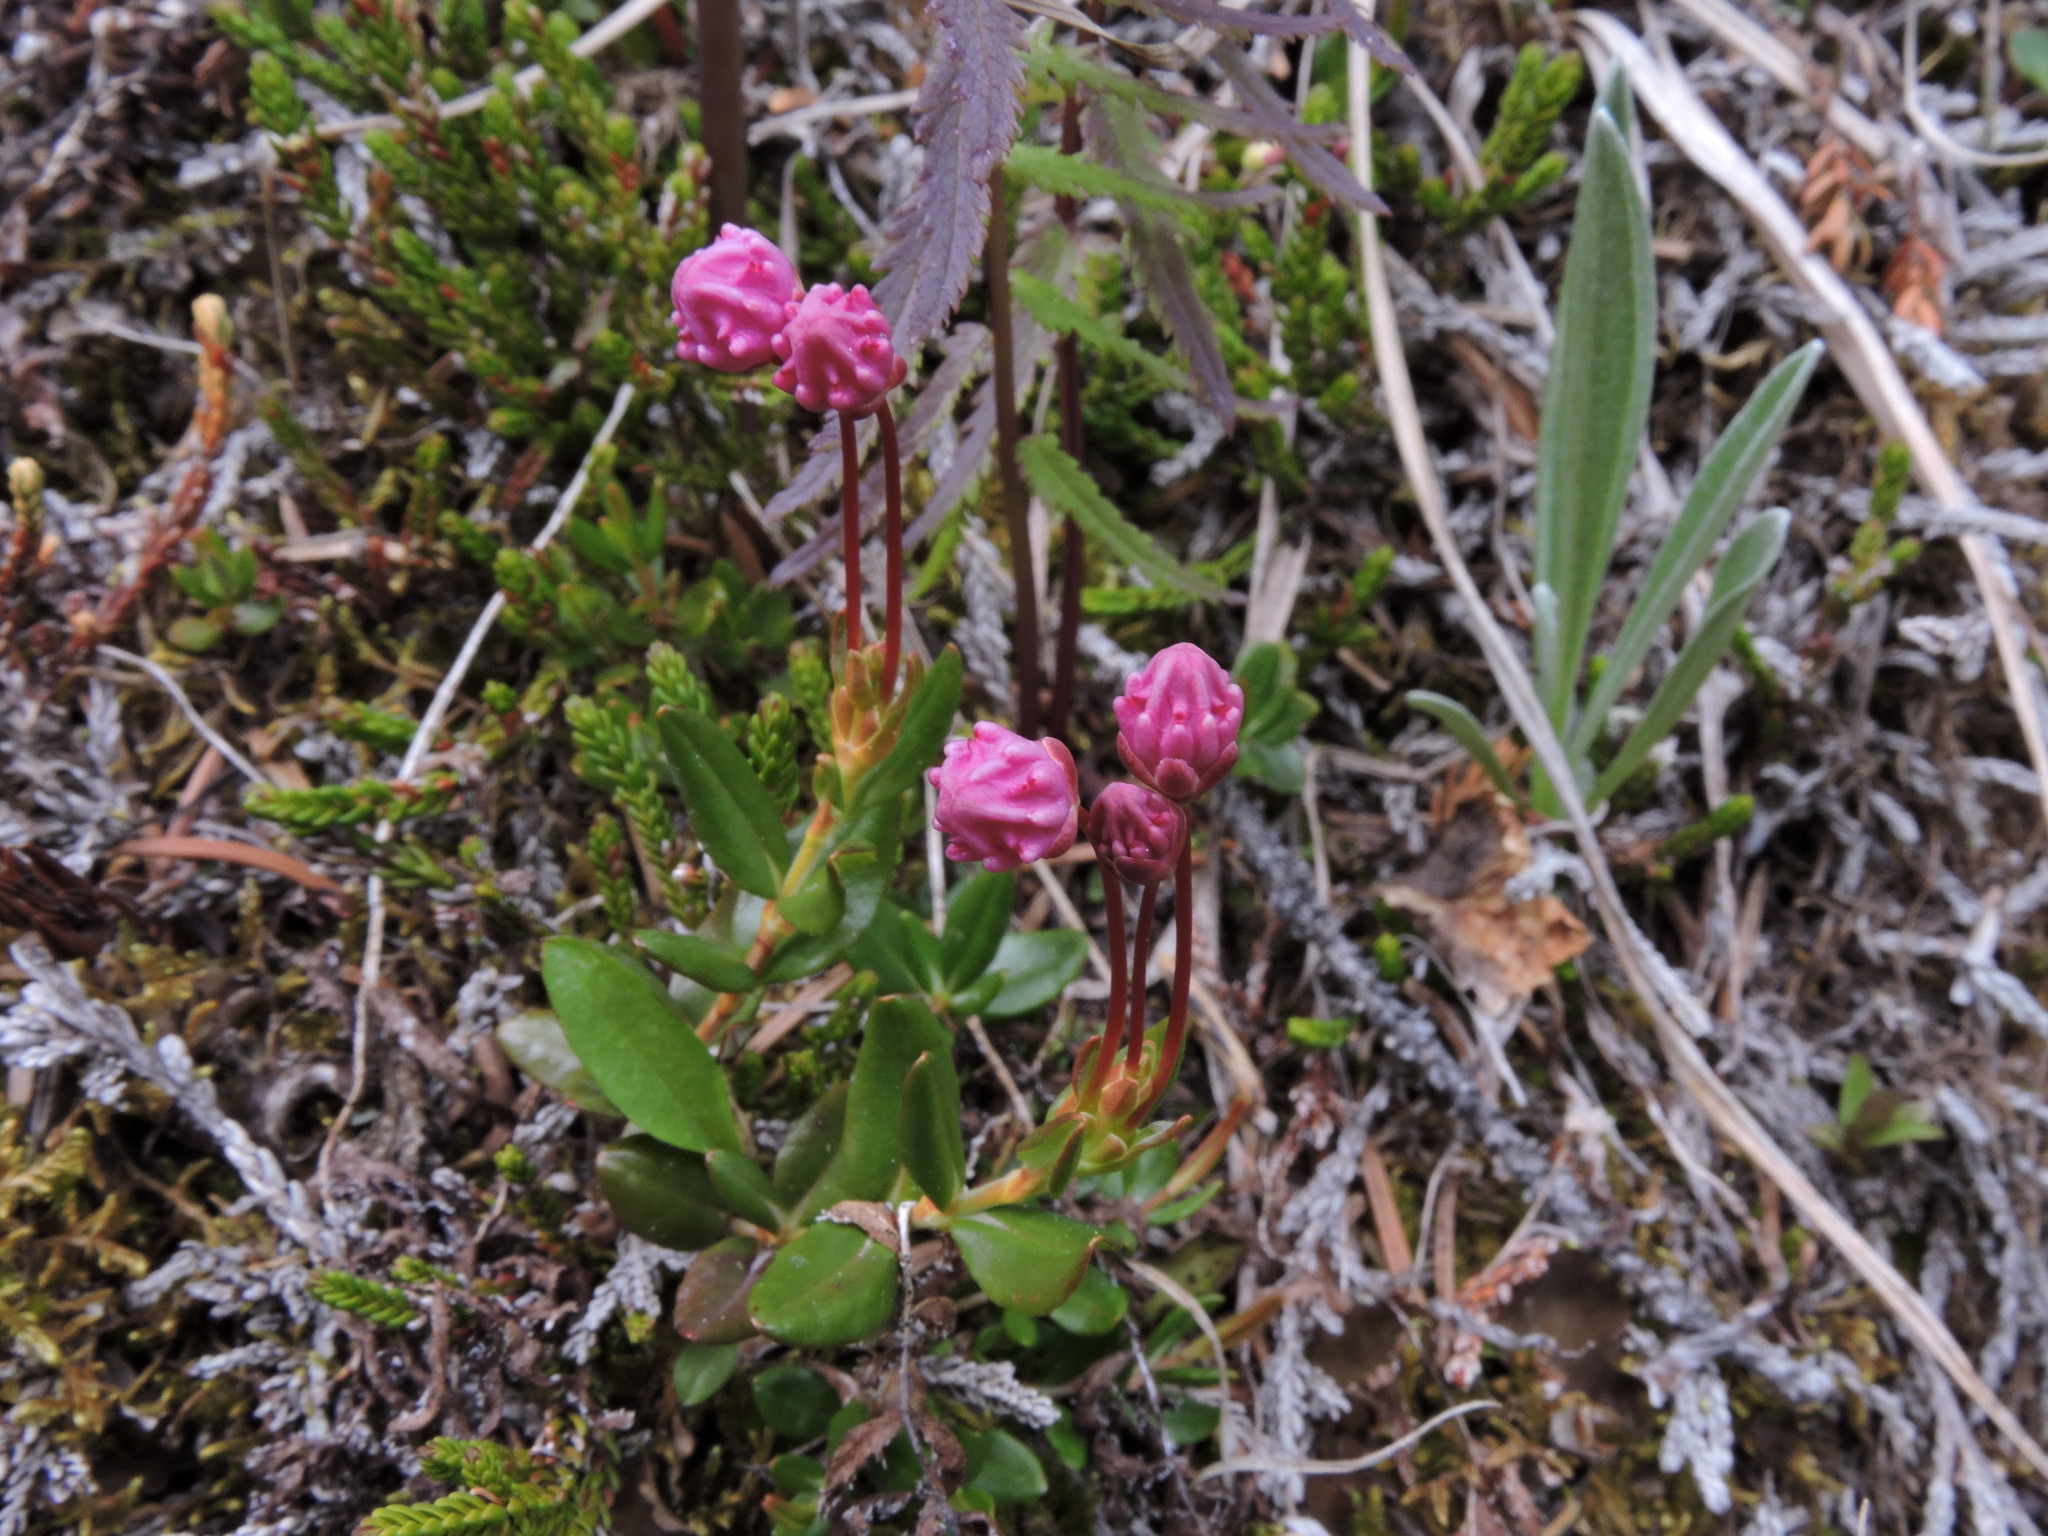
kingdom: Plantae
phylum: Tracheophyta
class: Magnoliopsida
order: Ericales
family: Ericaceae
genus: Kalmia
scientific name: Kalmia microphylla
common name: Alpine bog laurel
